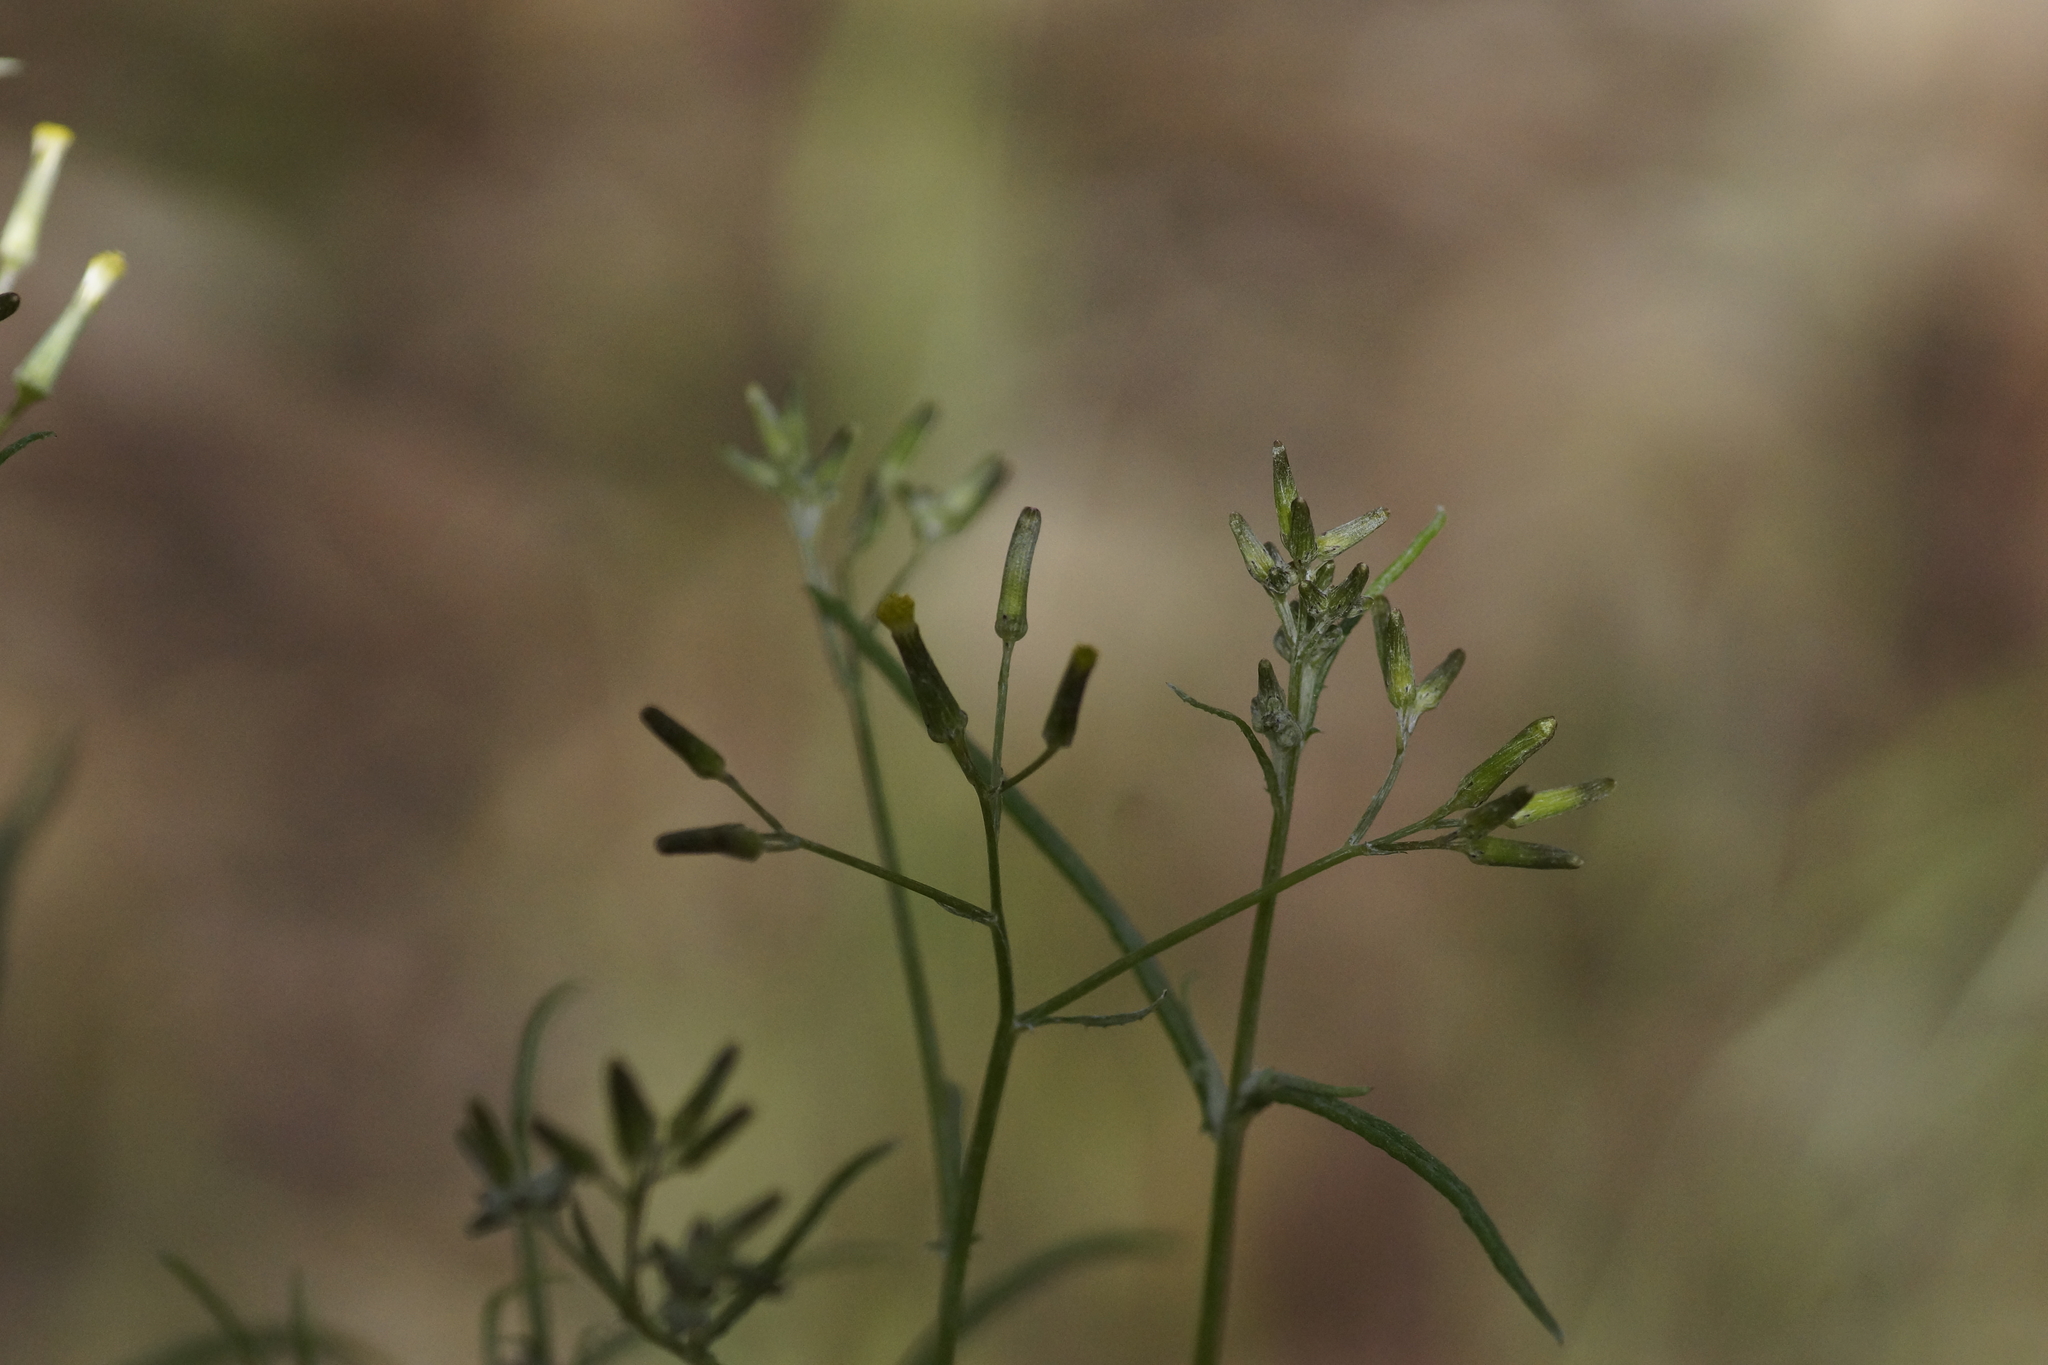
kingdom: Plantae
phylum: Tracheophyta
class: Magnoliopsida
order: Asterales
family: Asteraceae
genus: Senecio
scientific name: Senecio quadridentatus
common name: Cotton fireweed
